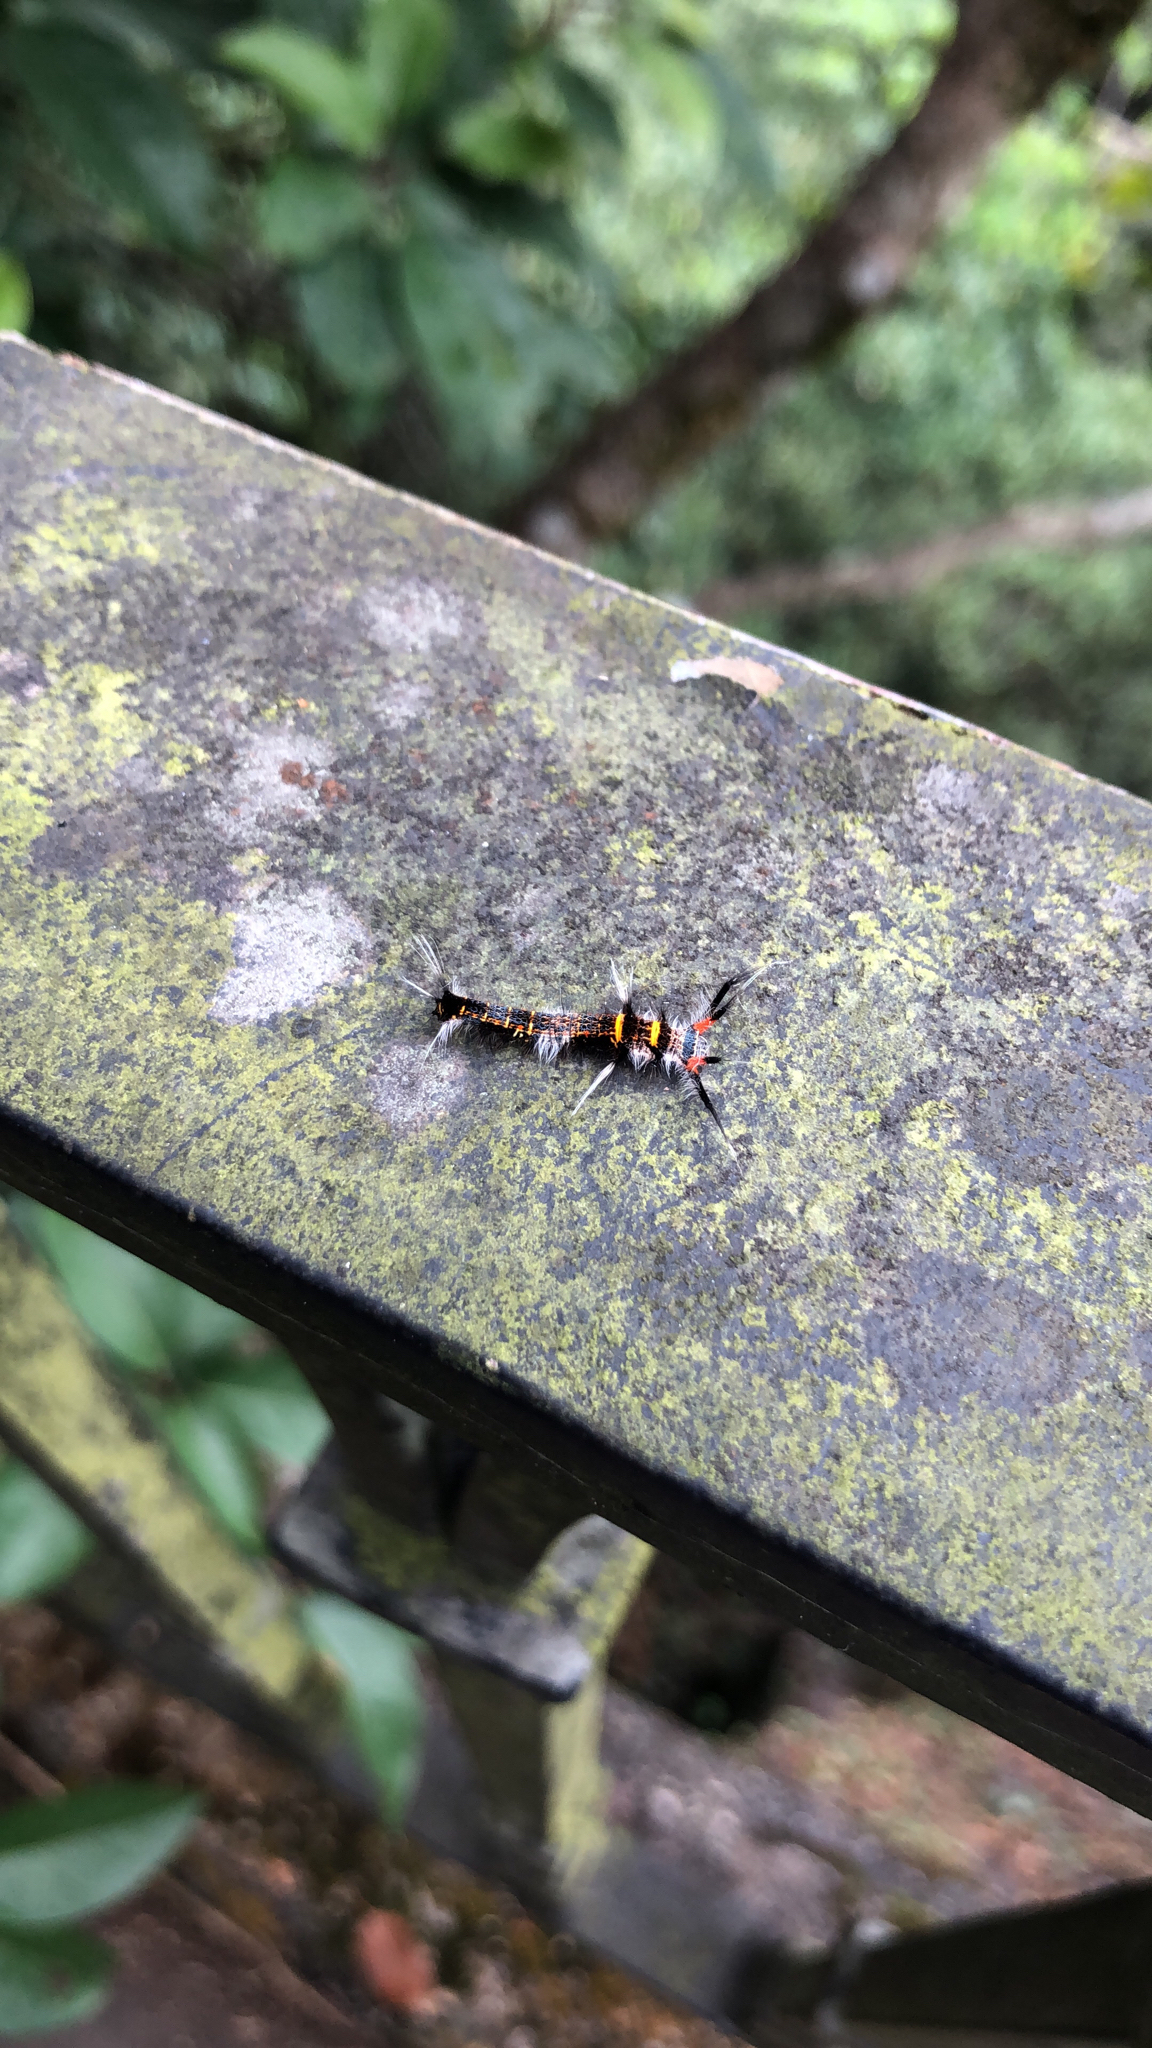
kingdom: Animalia
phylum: Arthropoda
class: Insecta
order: Lepidoptera
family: Lasiocampidae
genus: Kunugia
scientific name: Kunugia divaricata
